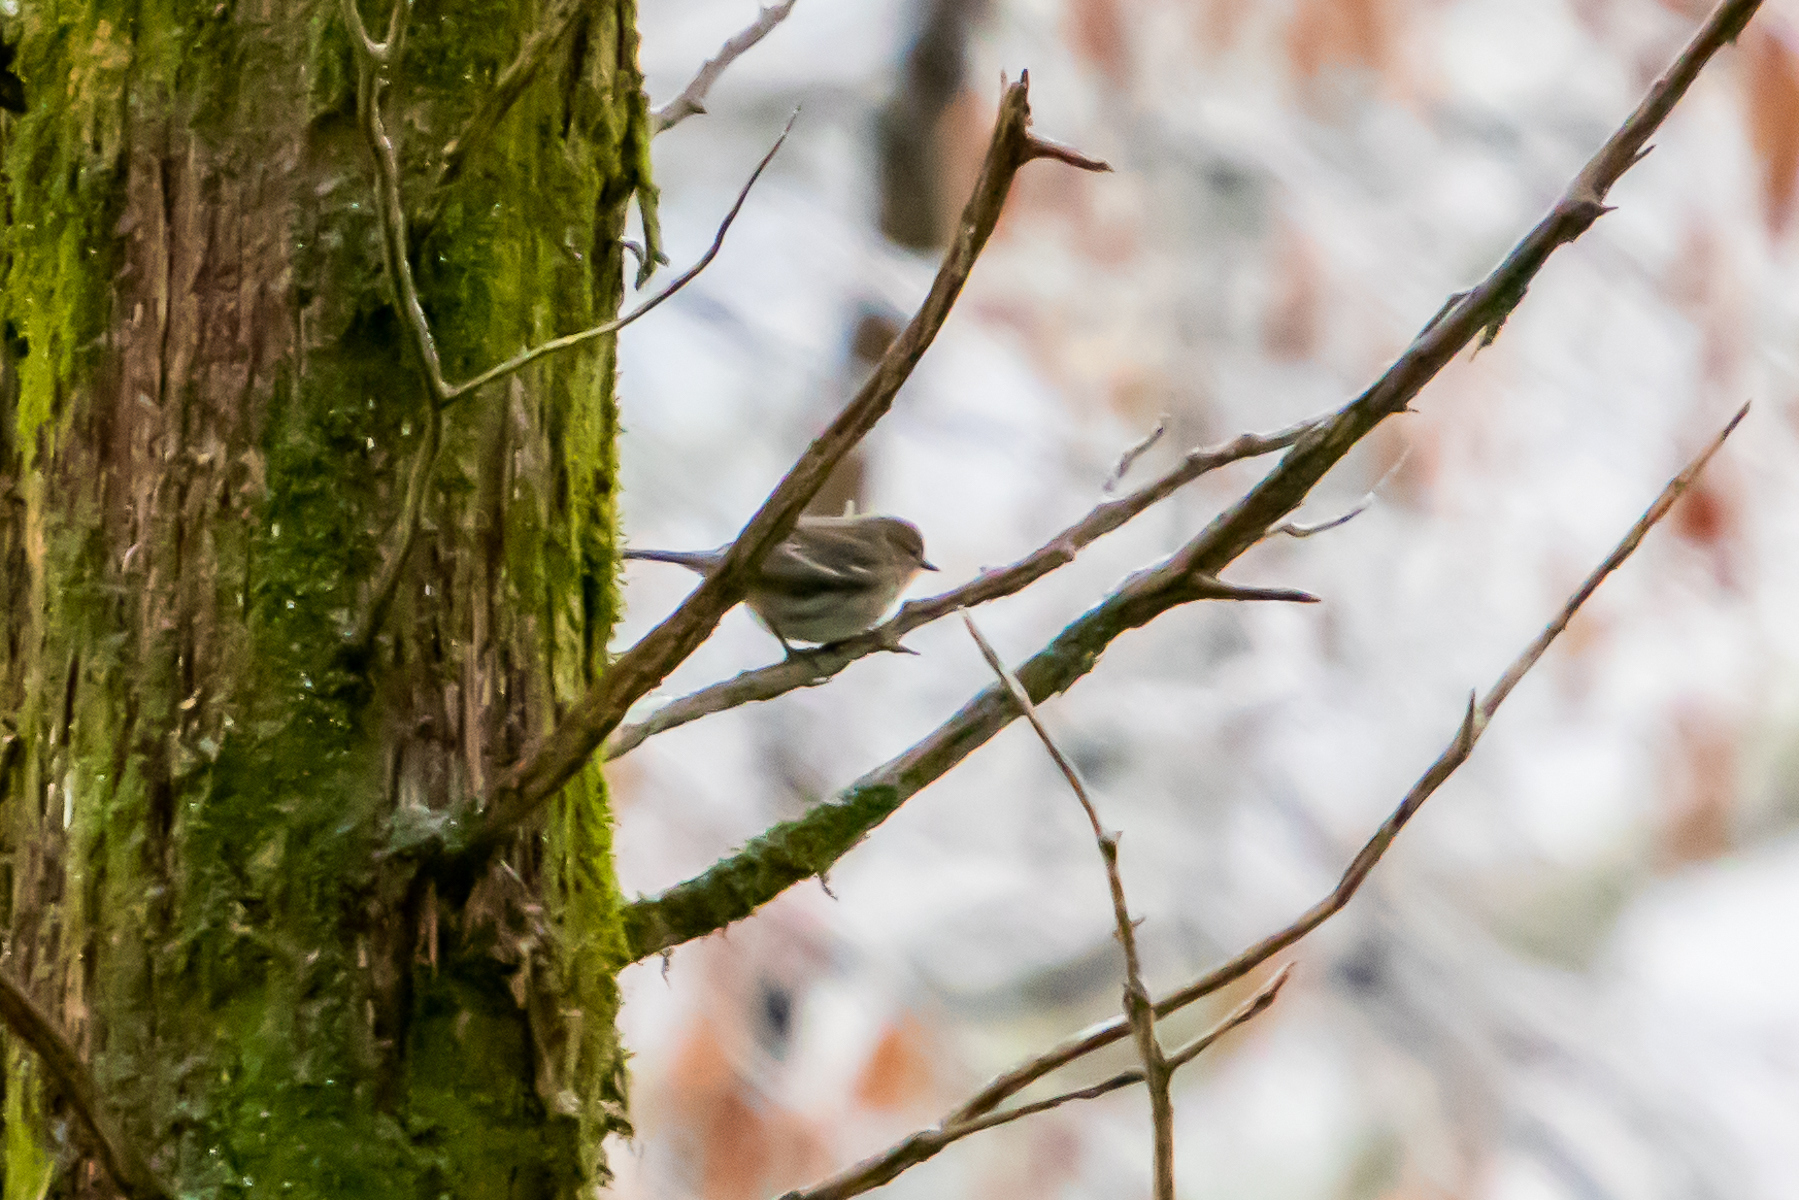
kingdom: Animalia
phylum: Chordata
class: Aves
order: Passeriformes
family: Parulidae
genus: Setophaga
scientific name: Setophaga coronata
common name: Myrtle warbler
